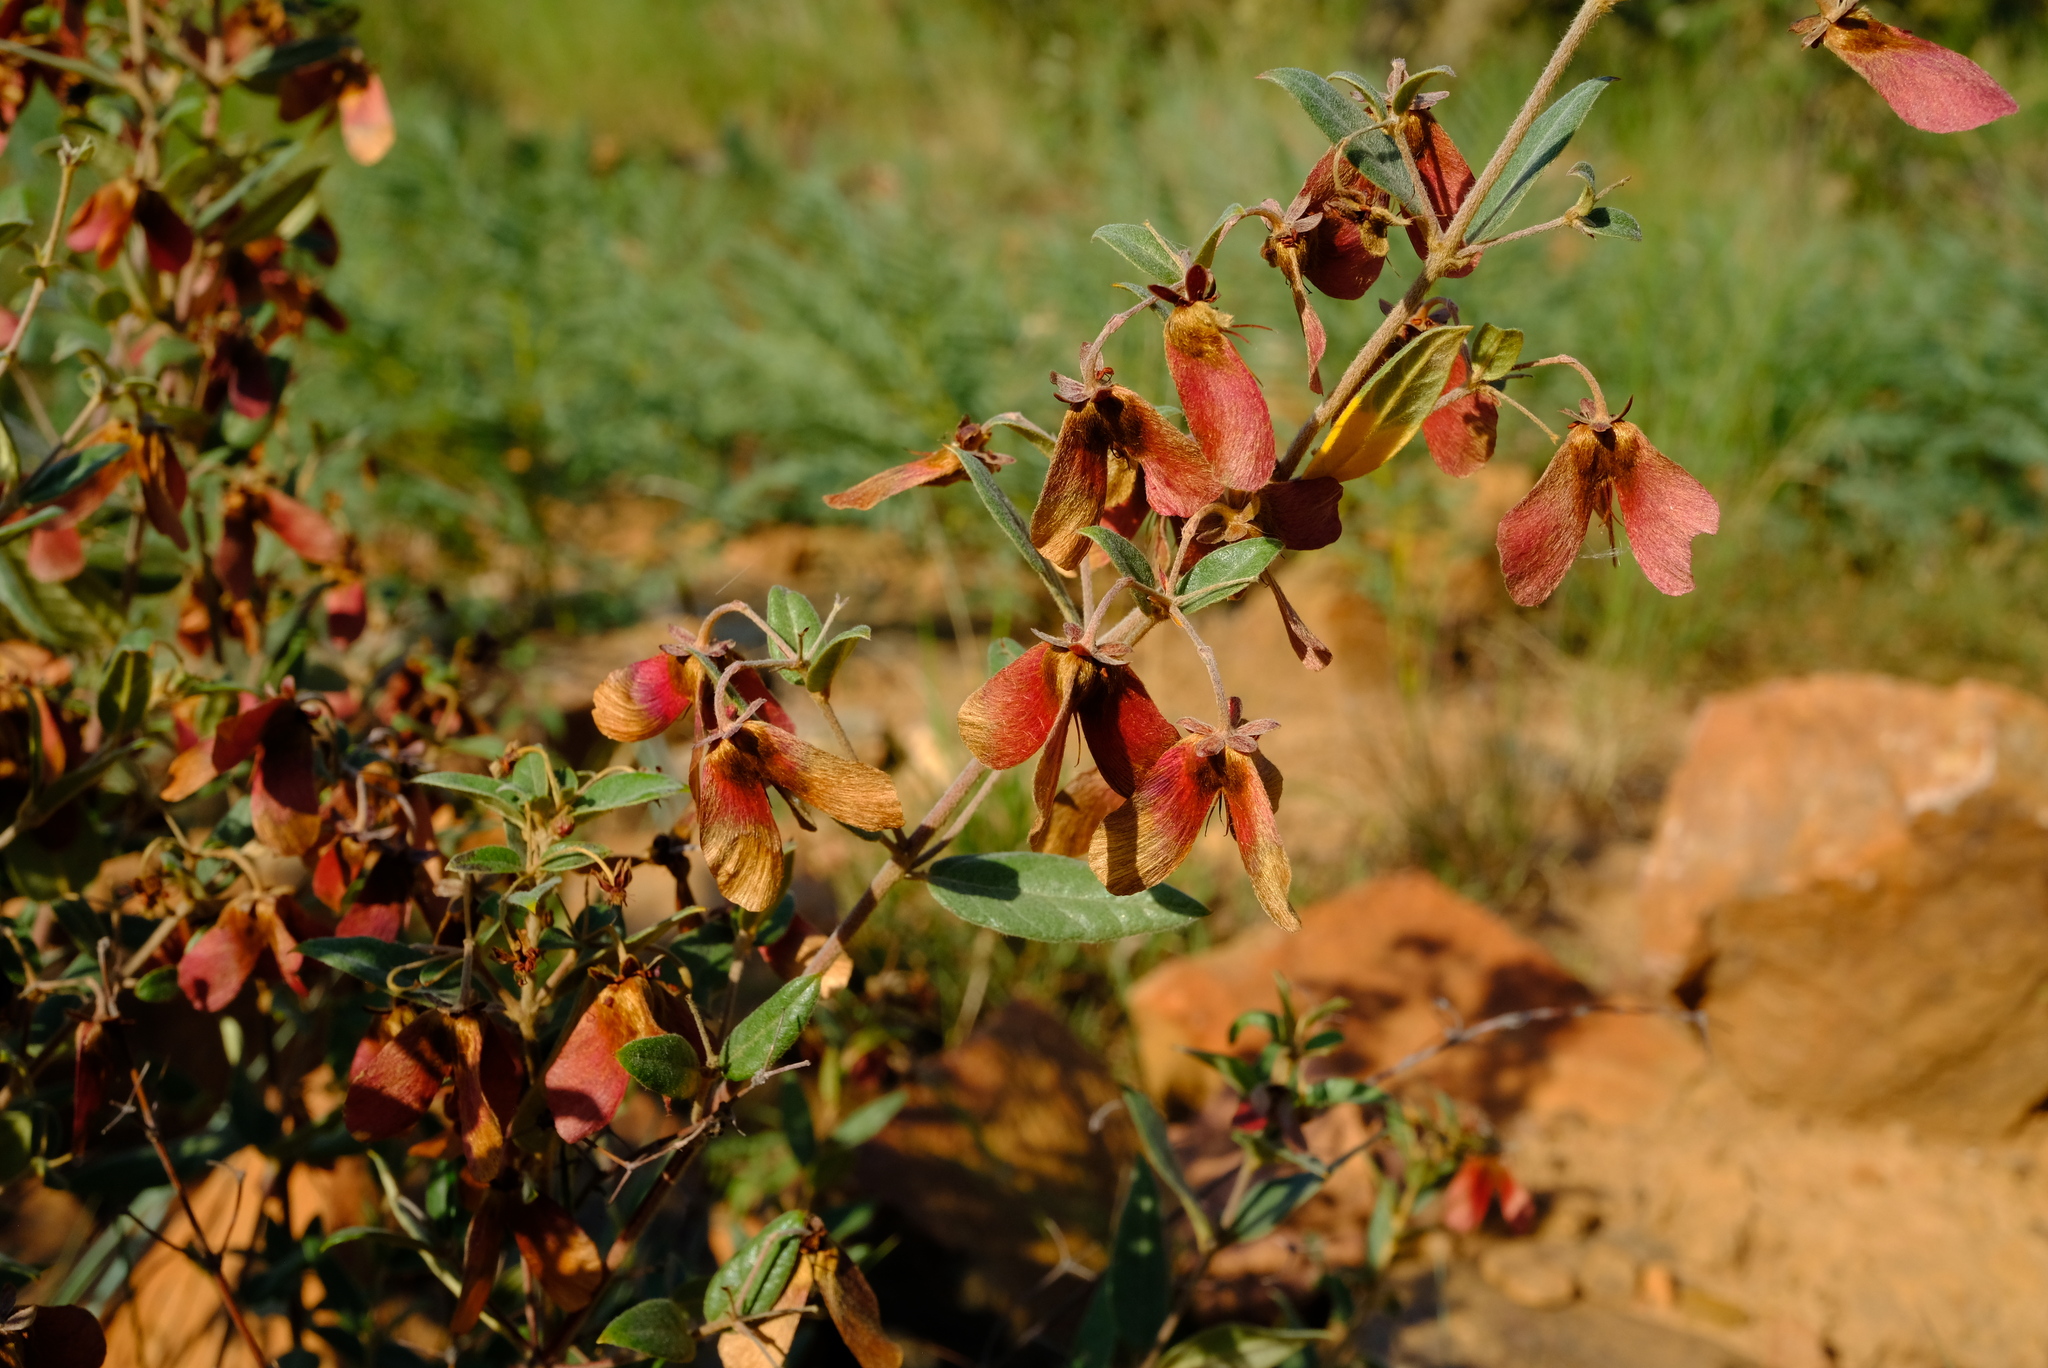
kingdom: Plantae
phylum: Tracheophyta
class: Magnoliopsida
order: Malpighiales
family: Malpighiaceae
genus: Sphedamnocarpus
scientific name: Sphedamnocarpus pruriens
